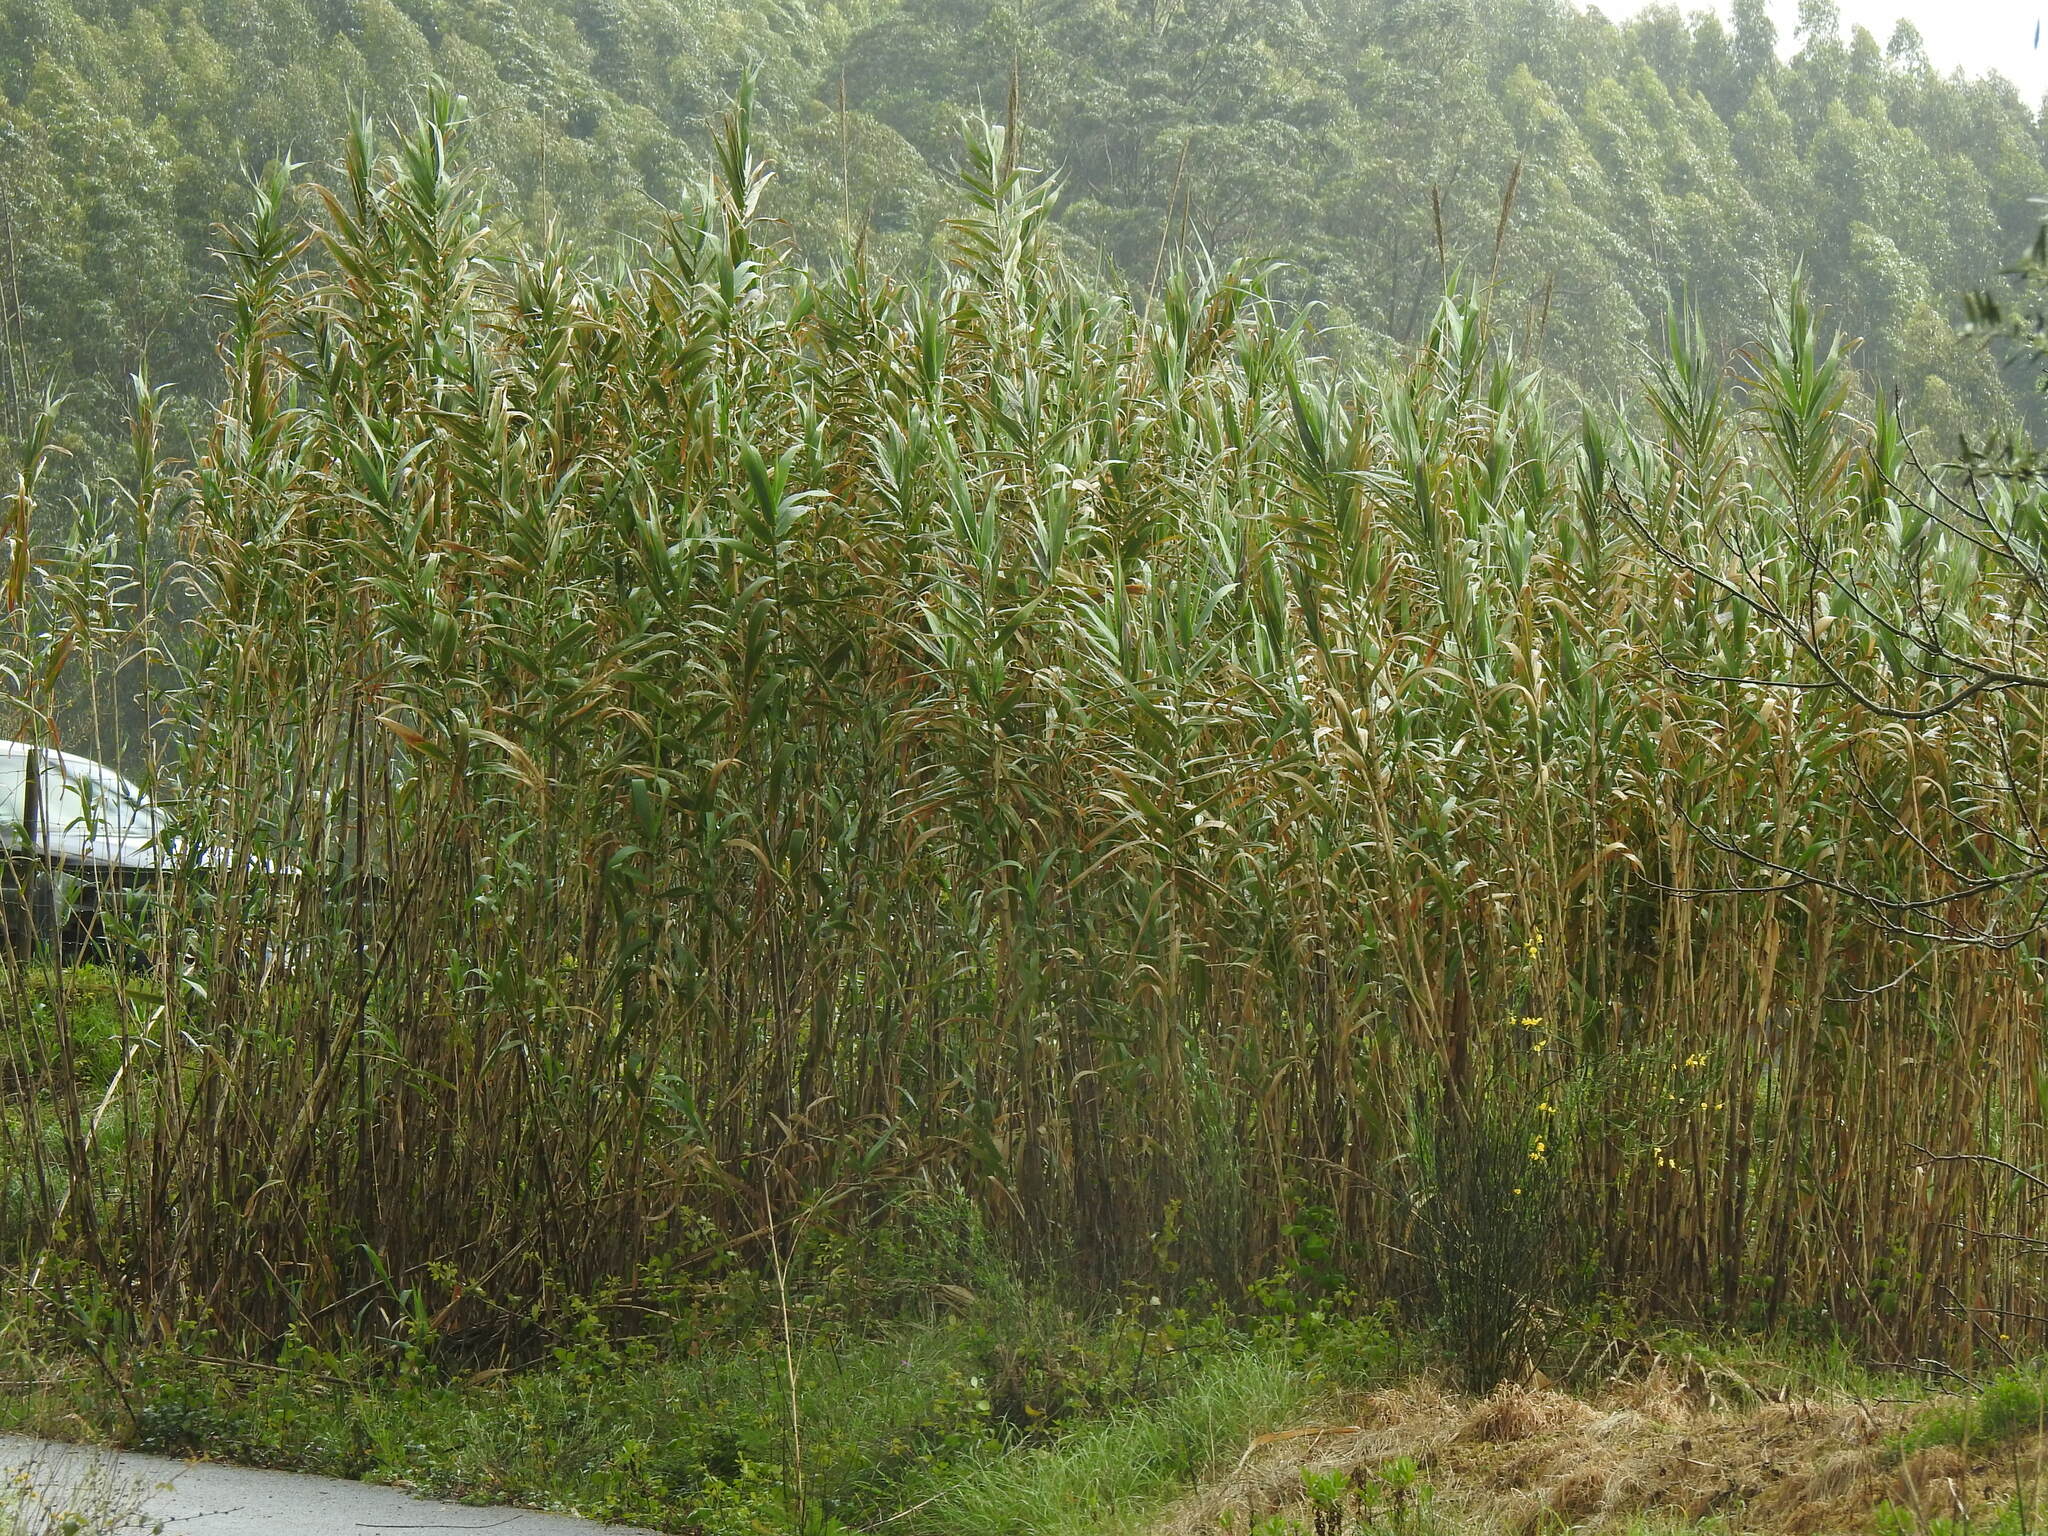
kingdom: Plantae
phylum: Tracheophyta
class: Liliopsida
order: Poales
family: Poaceae
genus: Arundo
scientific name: Arundo donax
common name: Giant reed
